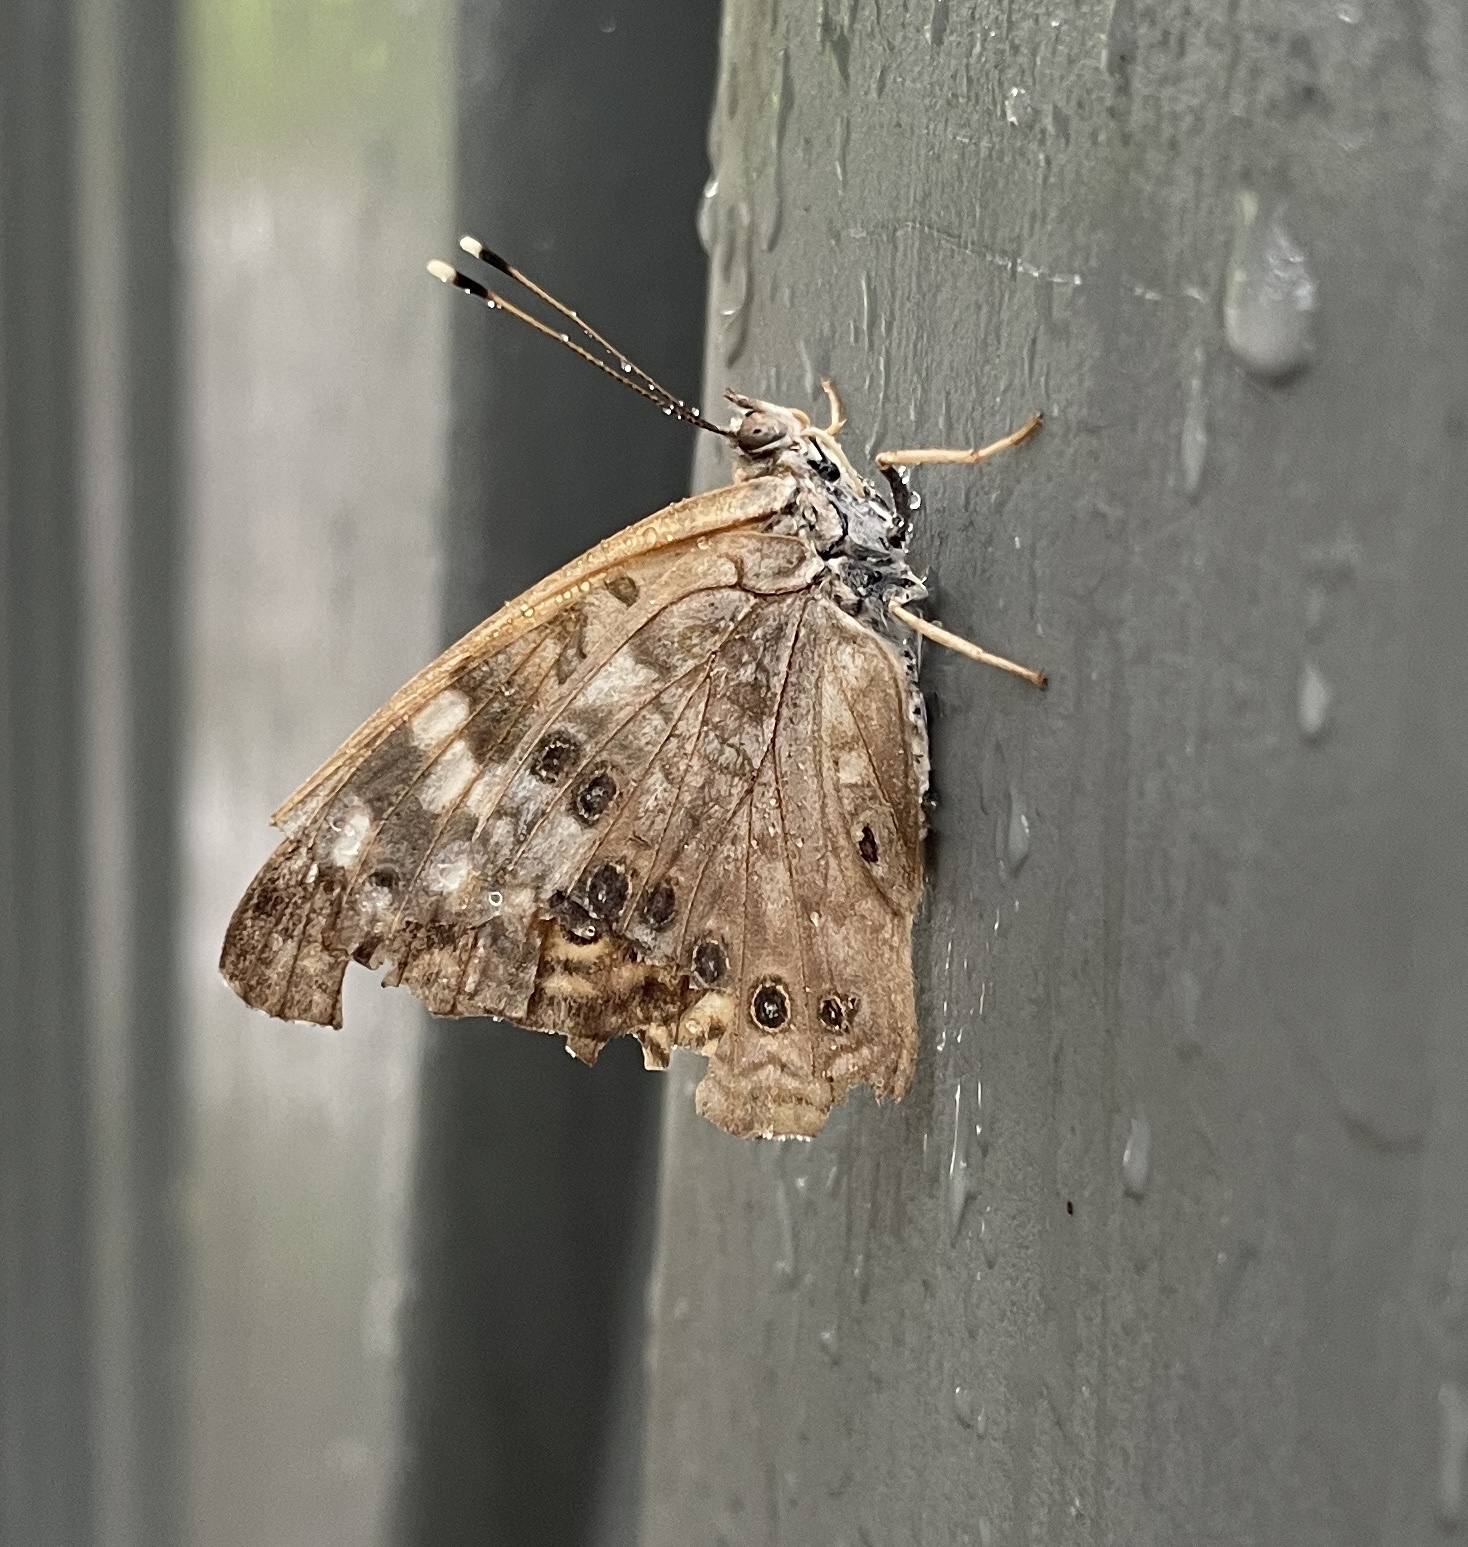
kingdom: Animalia
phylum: Arthropoda
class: Insecta
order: Lepidoptera
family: Nymphalidae
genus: Asterocampa
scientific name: Asterocampa celtis
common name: Hackberry emperor
